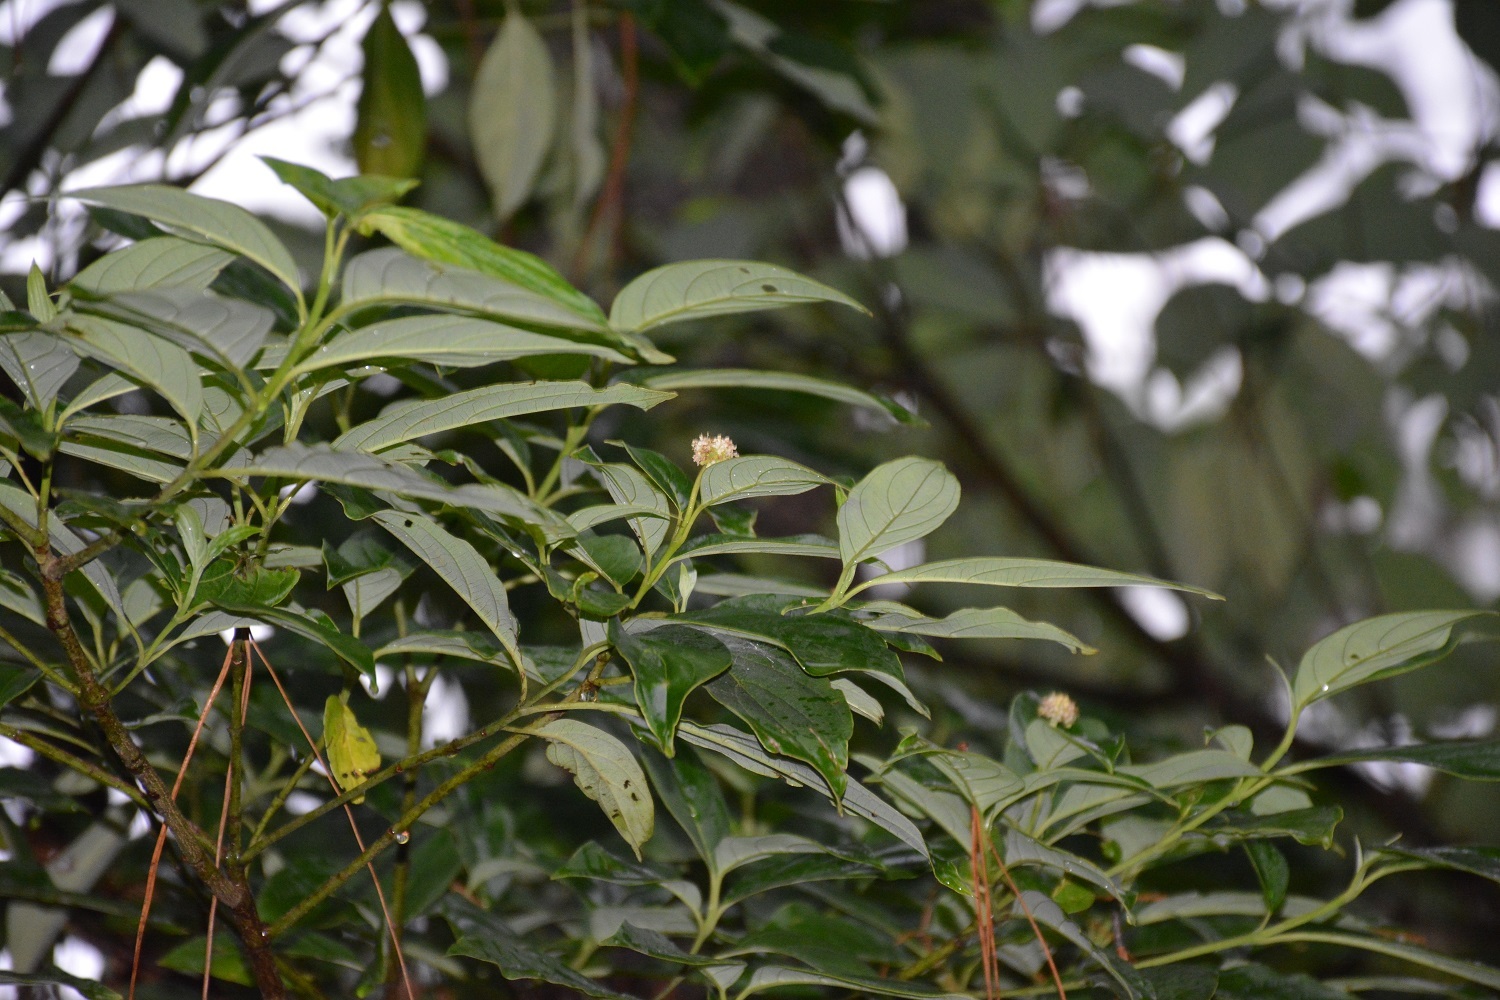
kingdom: Plantae
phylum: Tracheophyta
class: Magnoliopsida
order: Cornales
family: Cornaceae
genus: Cornus
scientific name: Cornus disciflora
